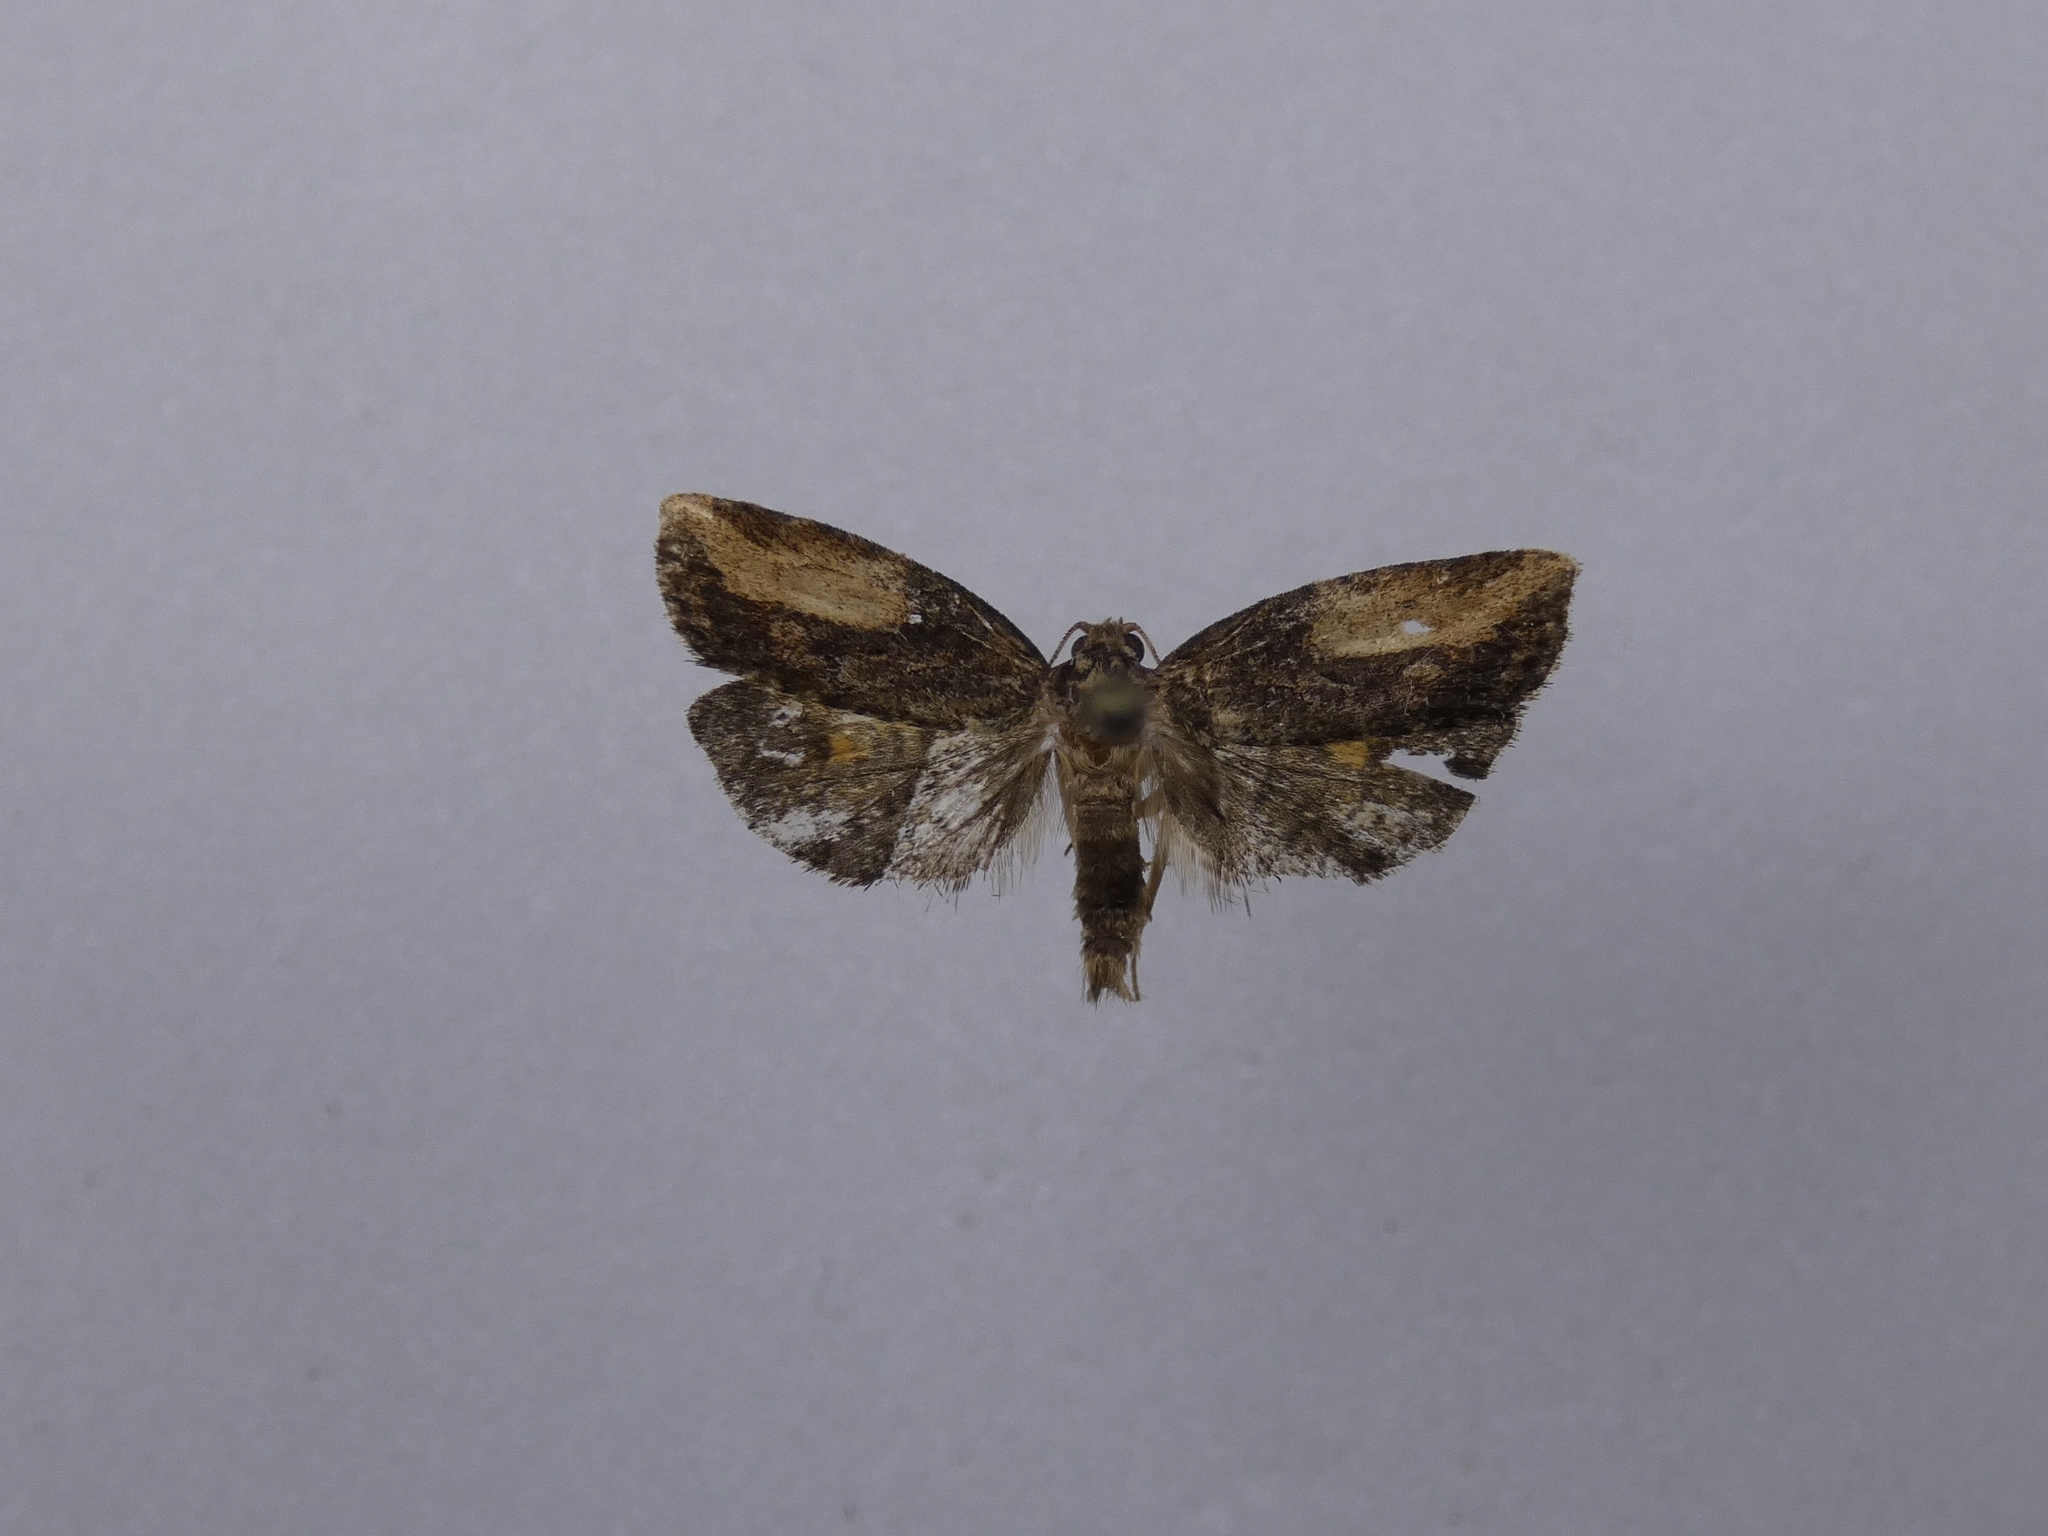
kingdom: Animalia
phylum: Arthropoda
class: Insecta
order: Lepidoptera
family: Tortricidae
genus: Harmologa
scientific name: Harmologa scoliastis
